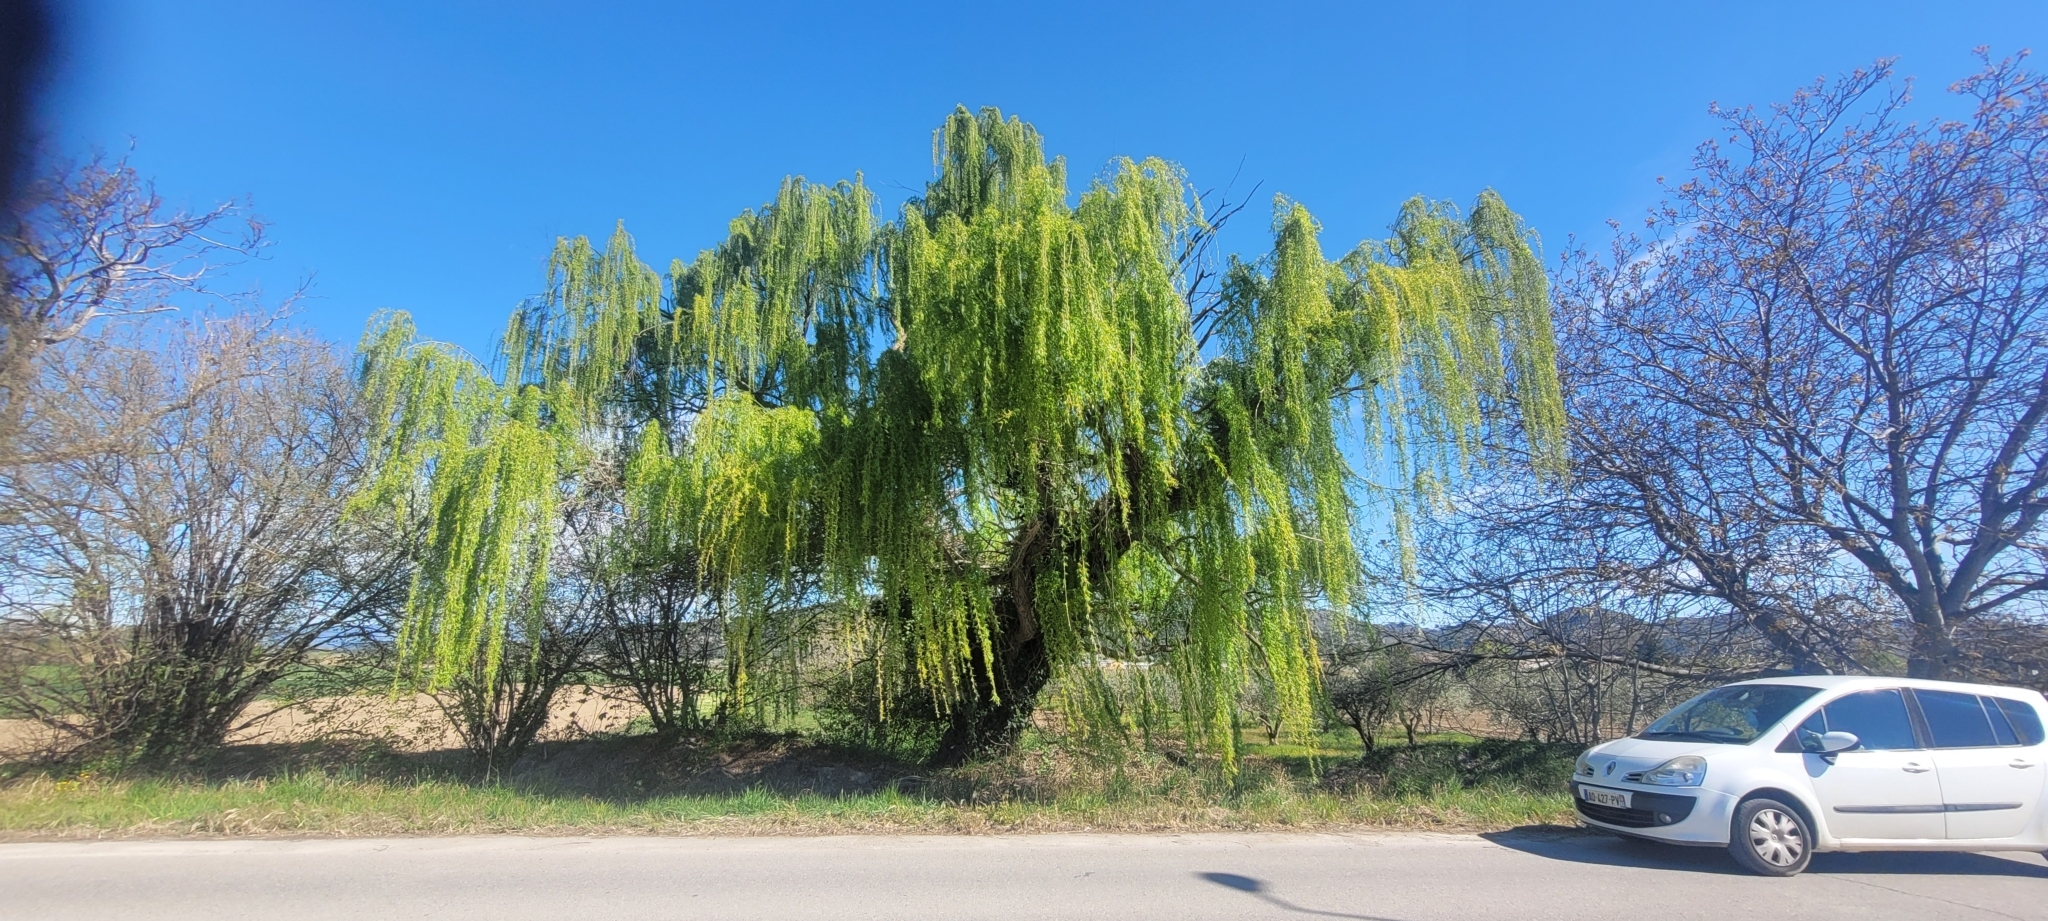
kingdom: Plantae
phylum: Tracheophyta
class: Magnoliopsida
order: Malpighiales
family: Salicaceae
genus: Salix
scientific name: Salix pendulina
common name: Wisconsin weeping willow
